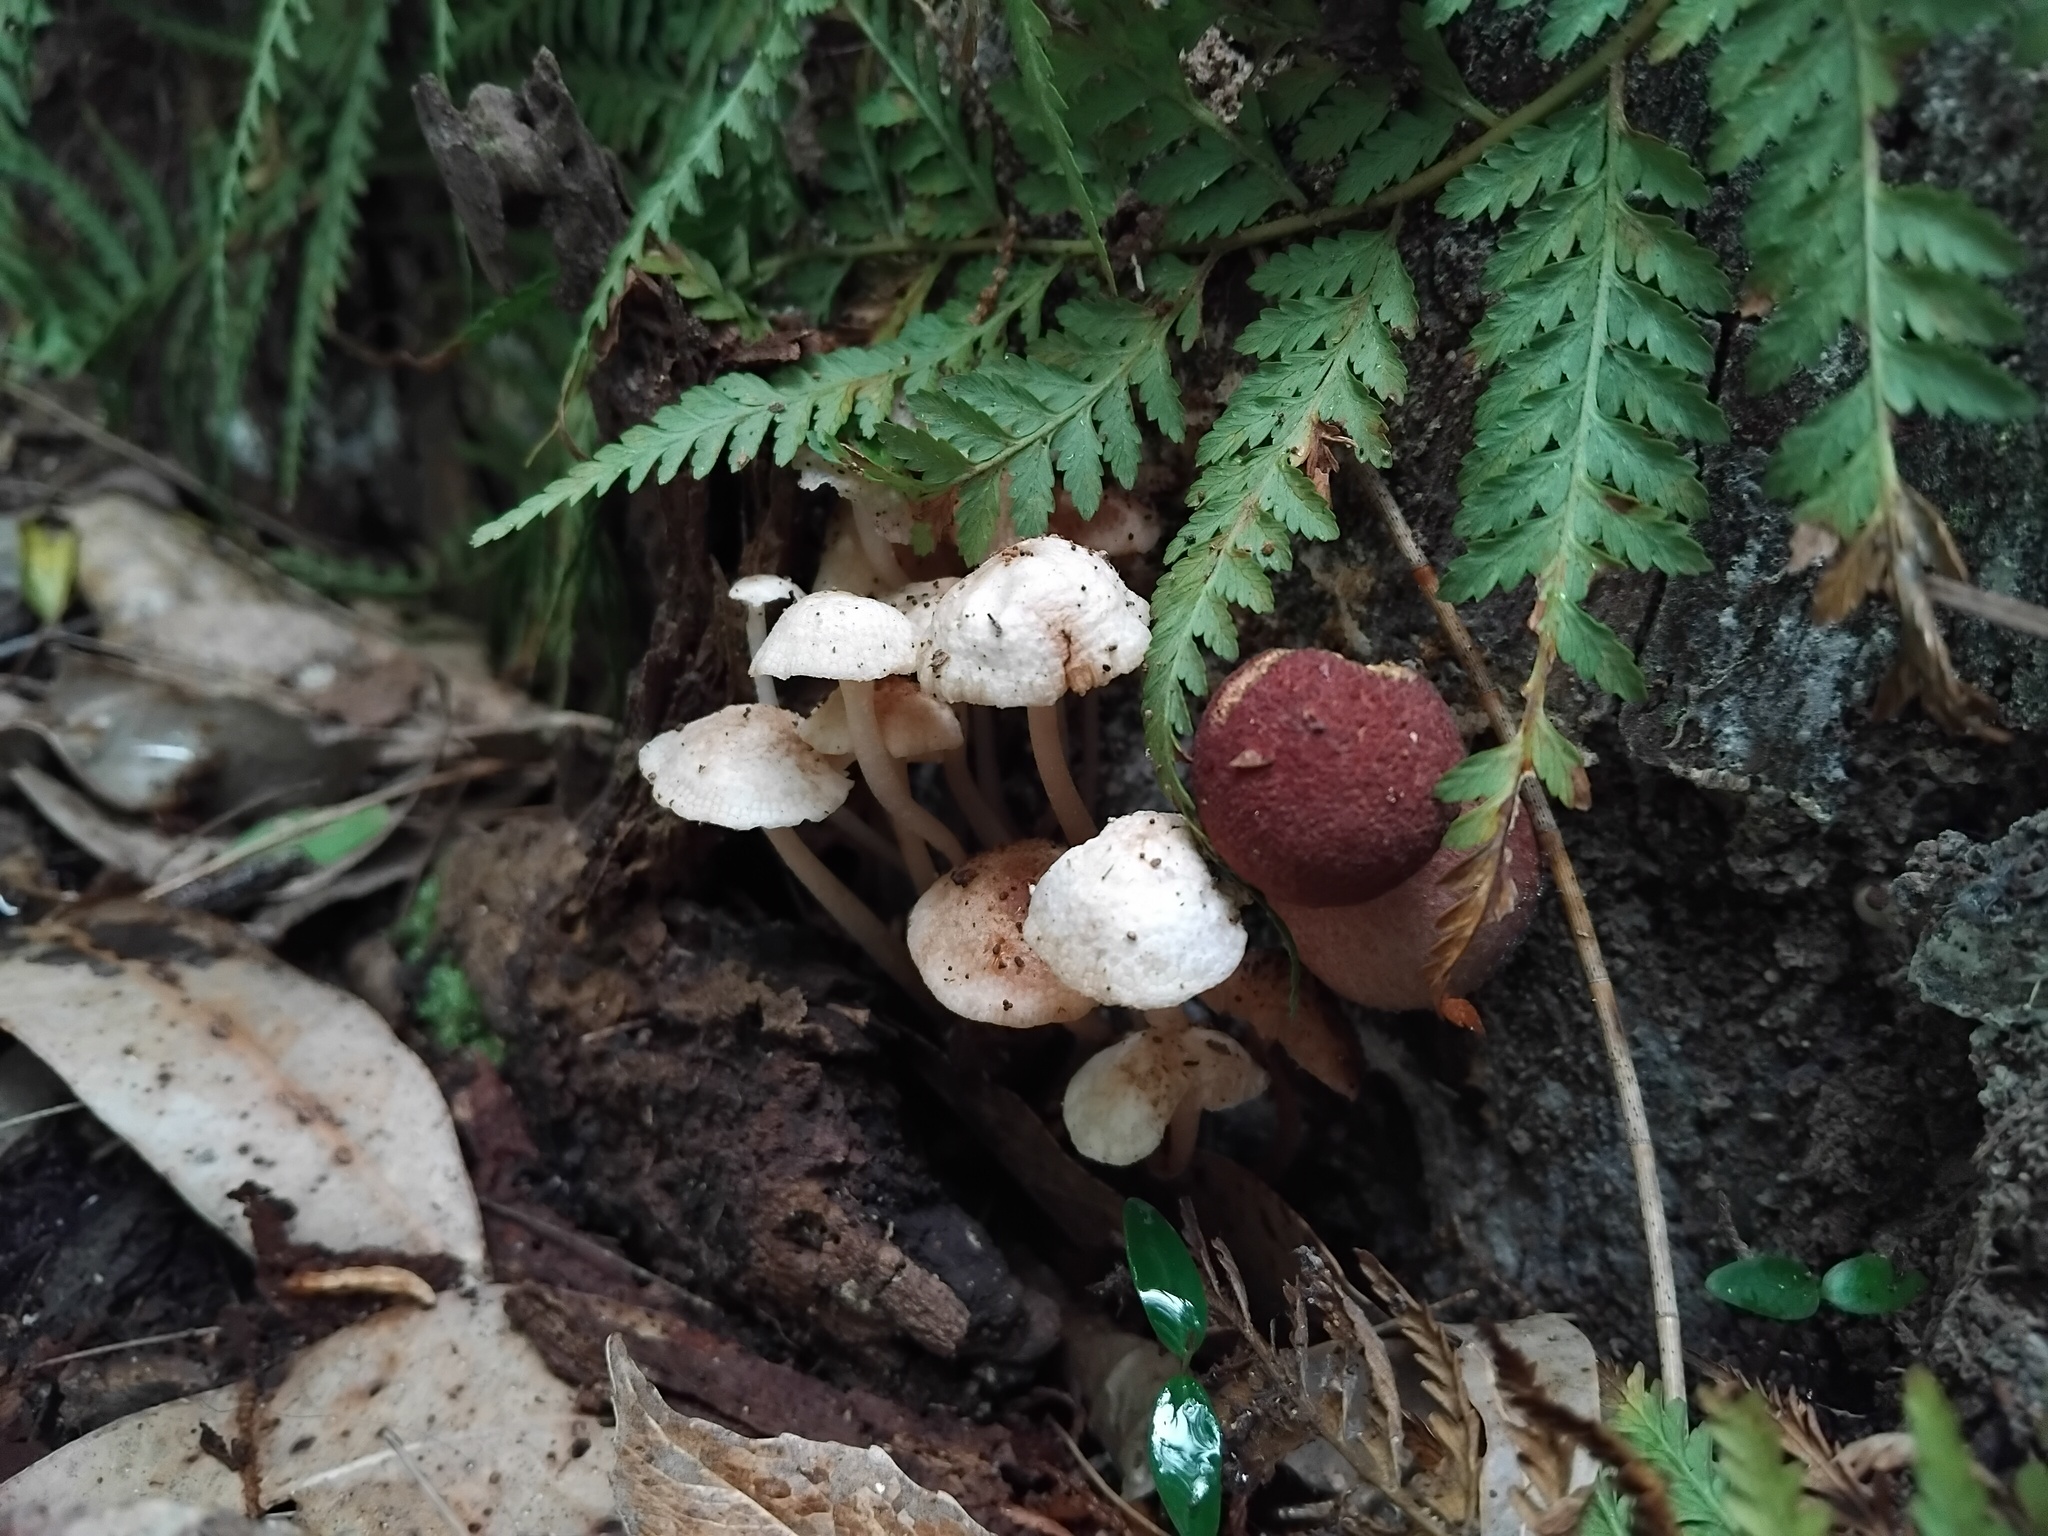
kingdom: Fungi
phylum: Basidiomycota
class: Agaricomycetes
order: Agaricales
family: Mycenaceae
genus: Filoboletus
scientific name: Filoboletus manipularis
